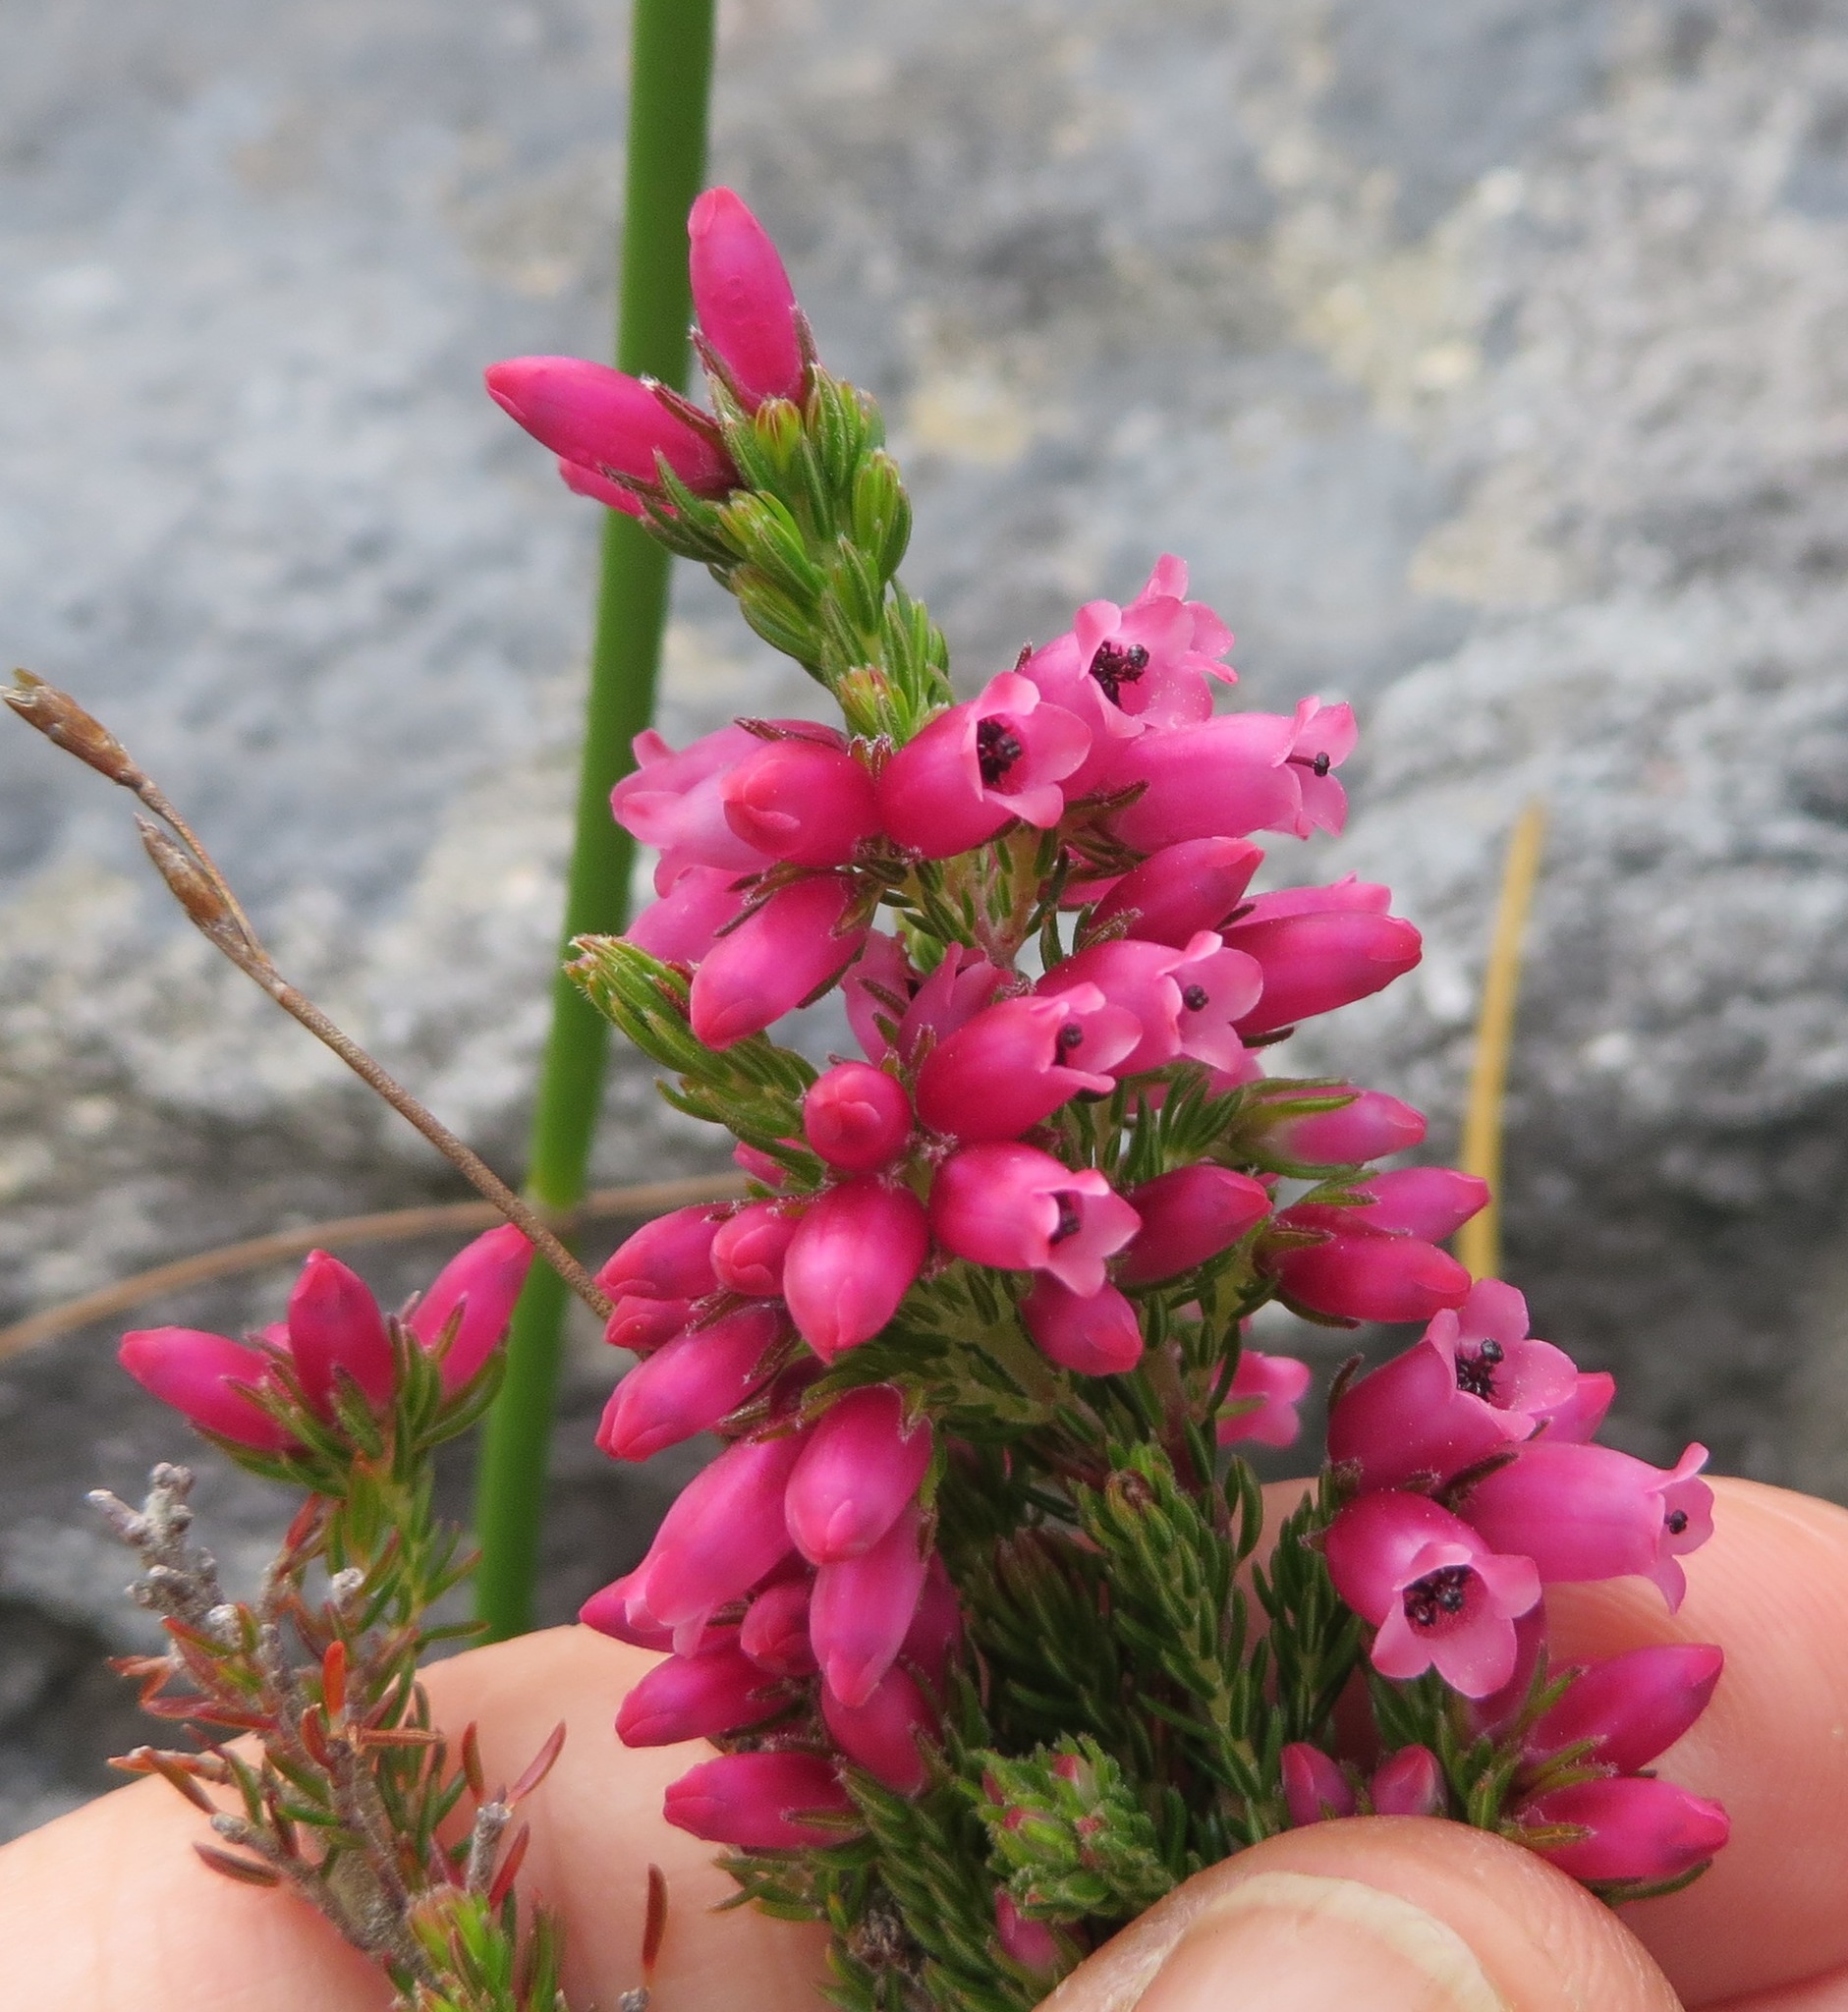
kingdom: Plantae
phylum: Tracheophyta
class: Magnoliopsida
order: Ericales
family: Ericaceae
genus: Erica
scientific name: Erica sitiens
